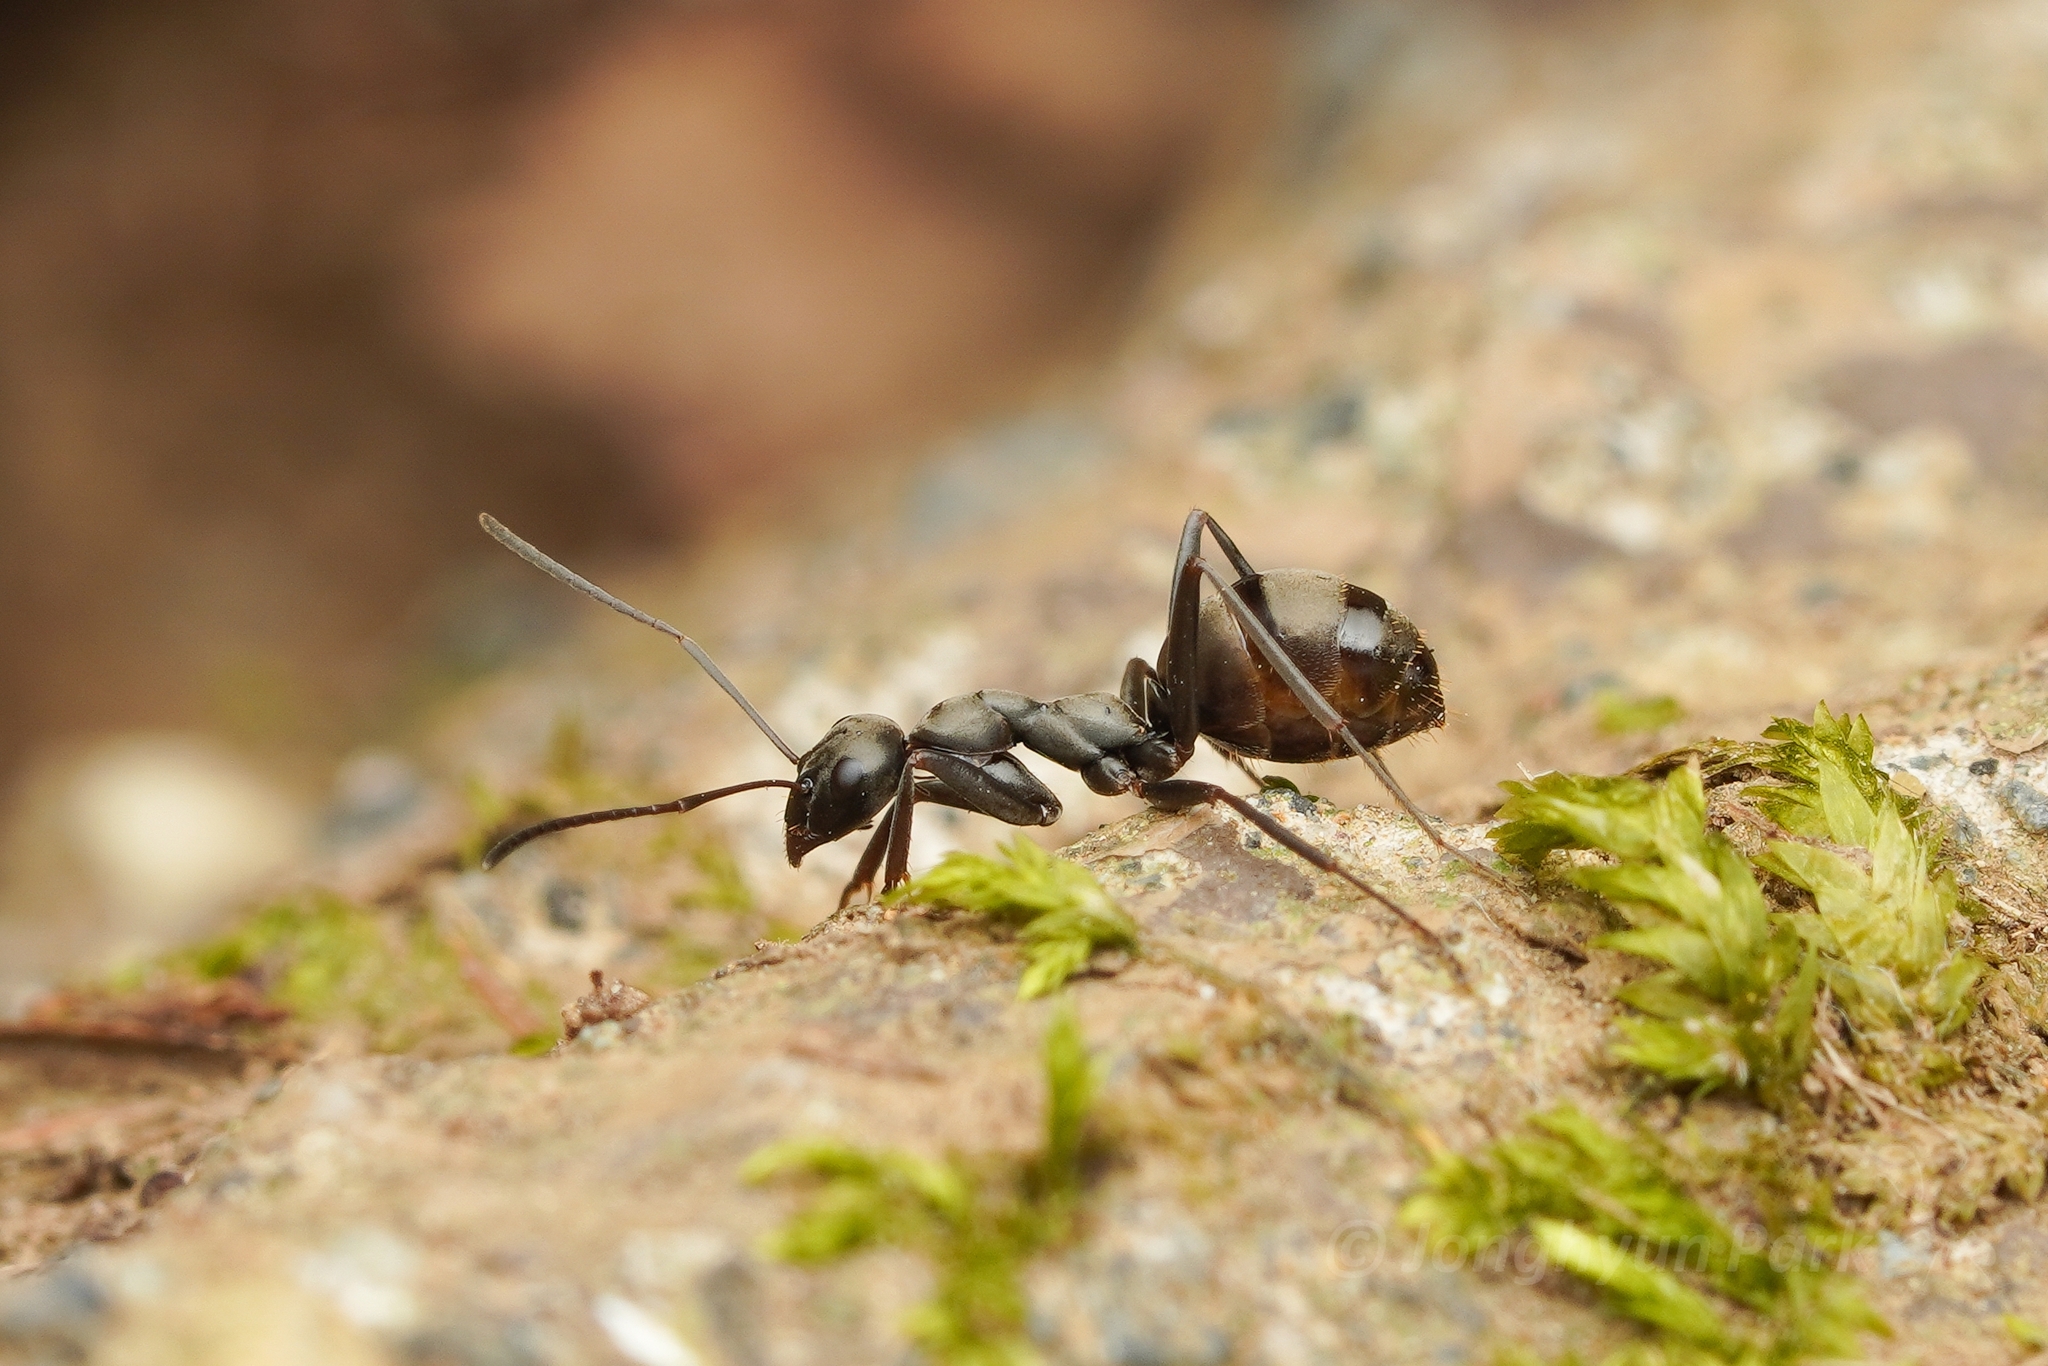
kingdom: Animalia
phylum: Arthropoda
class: Insecta
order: Hymenoptera
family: Formicidae
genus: Formica
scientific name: Formica hayashi
